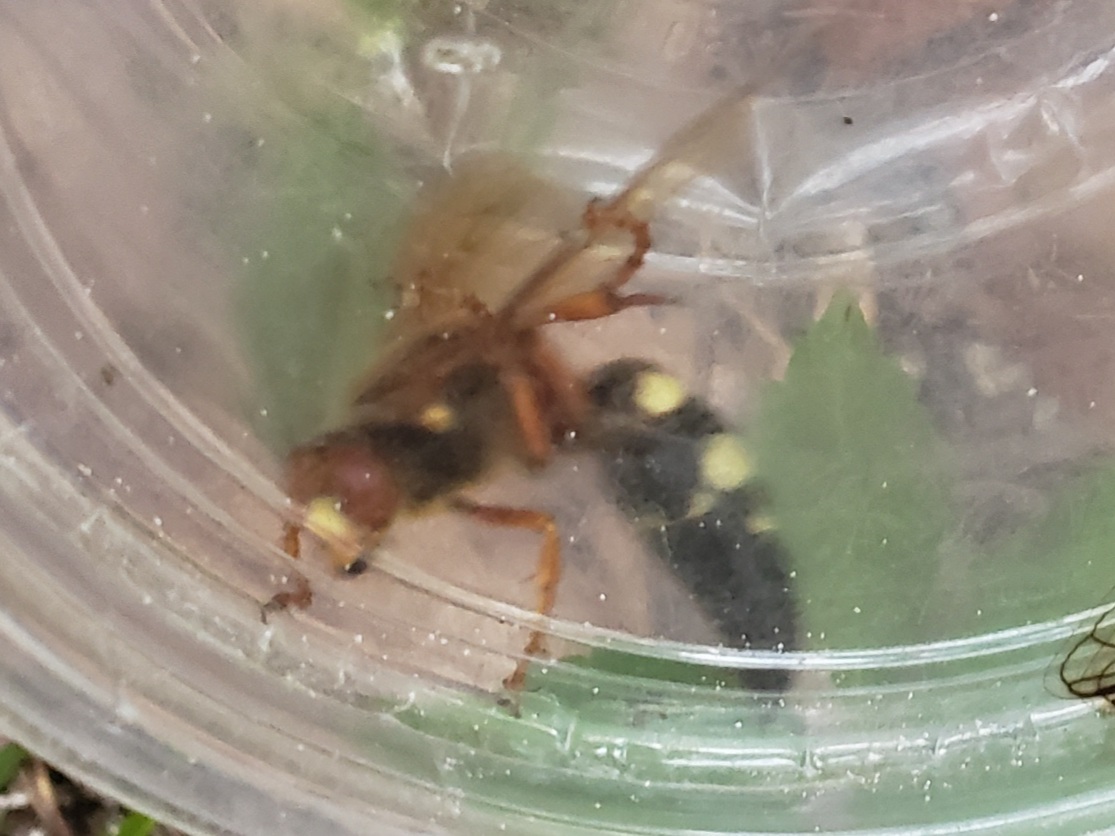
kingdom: Animalia
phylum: Arthropoda
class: Insecta
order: Hymenoptera
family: Crabronidae
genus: Sphecius
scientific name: Sphecius speciosus
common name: Cicada killer
